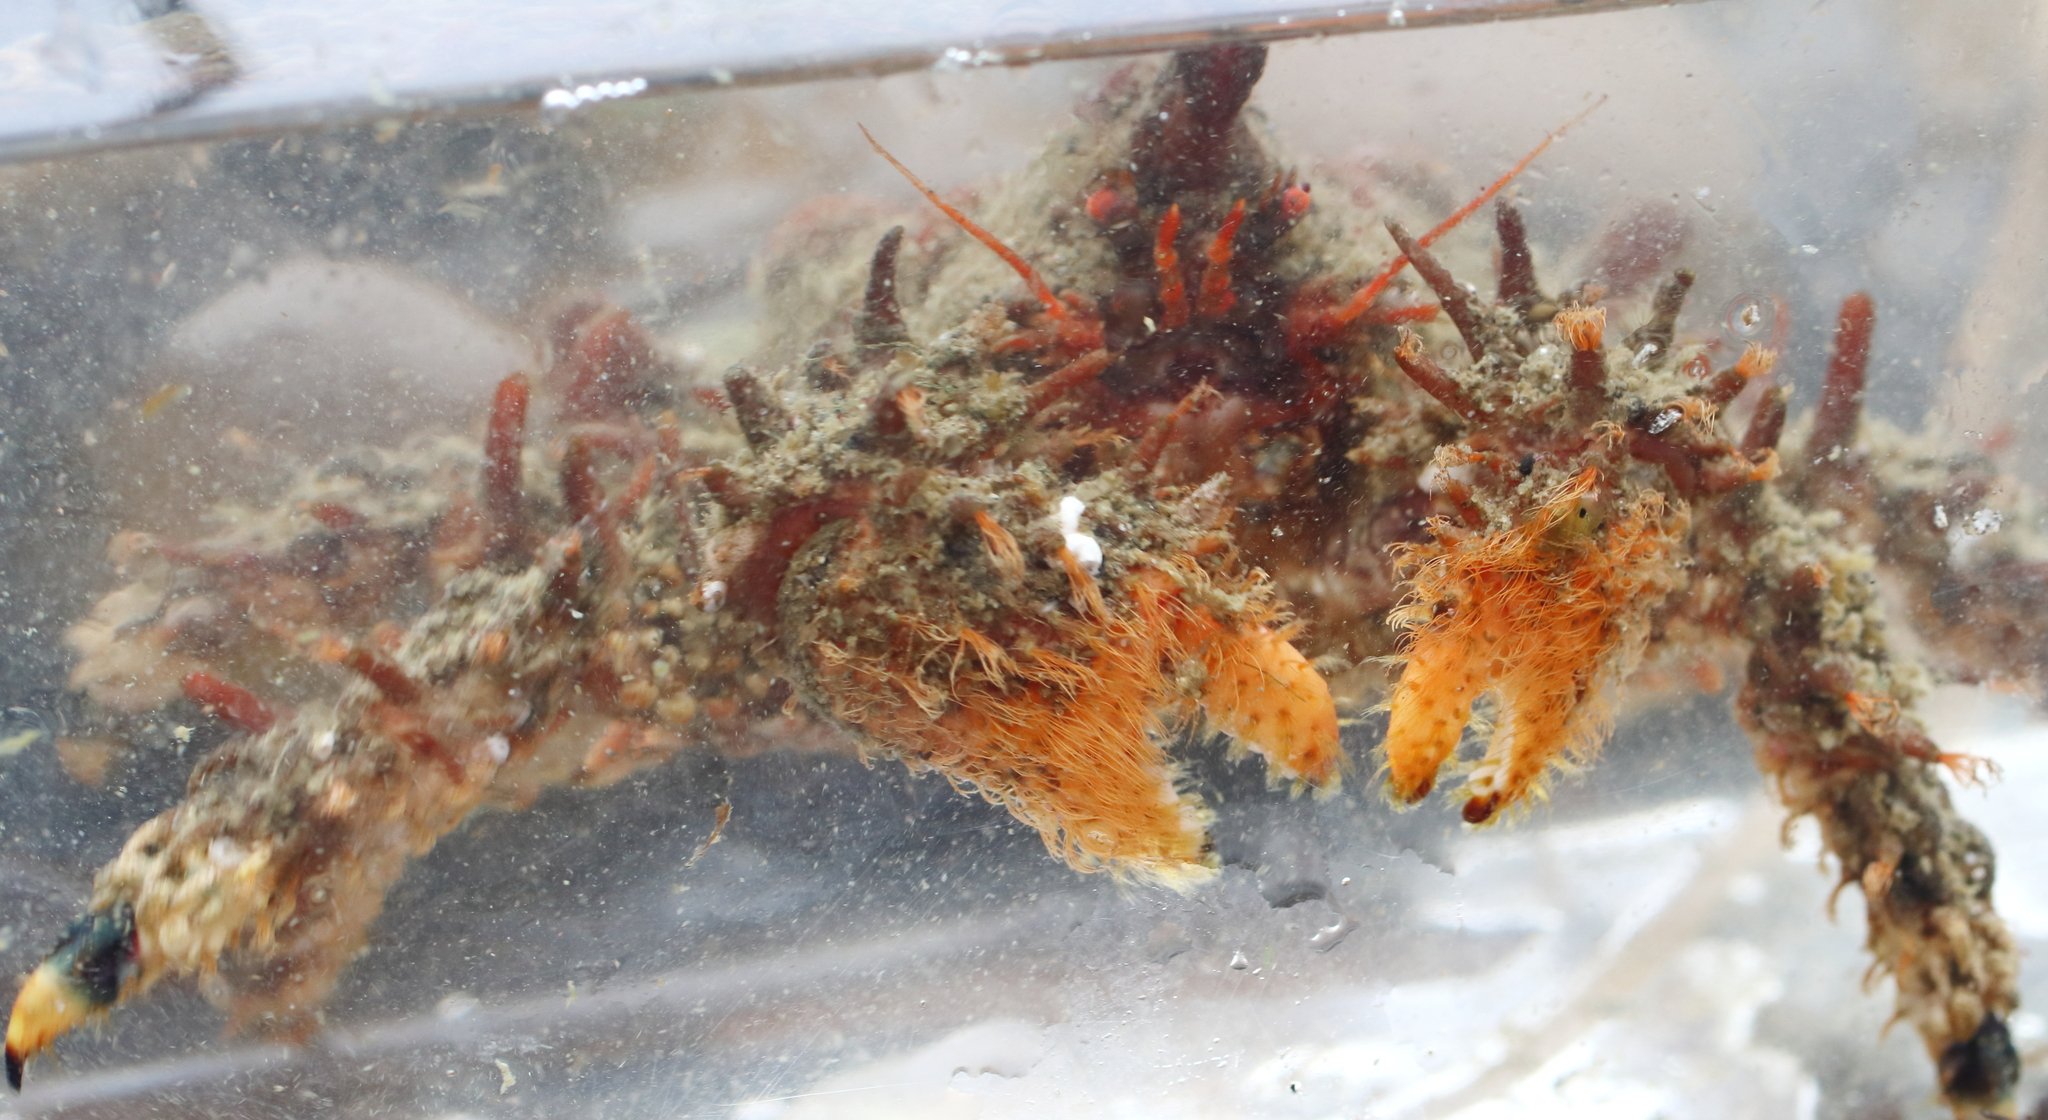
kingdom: Animalia
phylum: Arthropoda
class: Malacostraca
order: Decapoda
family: Lithodidae
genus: Phyllolithodes
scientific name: Phyllolithodes papillosus
